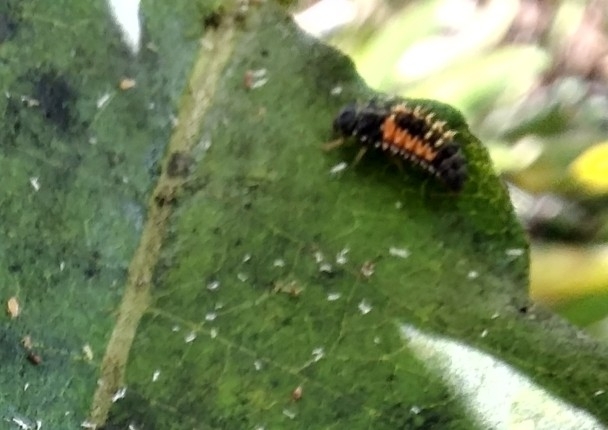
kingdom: Animalia
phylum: Arthropoda
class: Insecta
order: Coleoptera
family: Coccinellidae
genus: Harmonia
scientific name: Harmonia axyridis
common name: Harlequin ladybird
